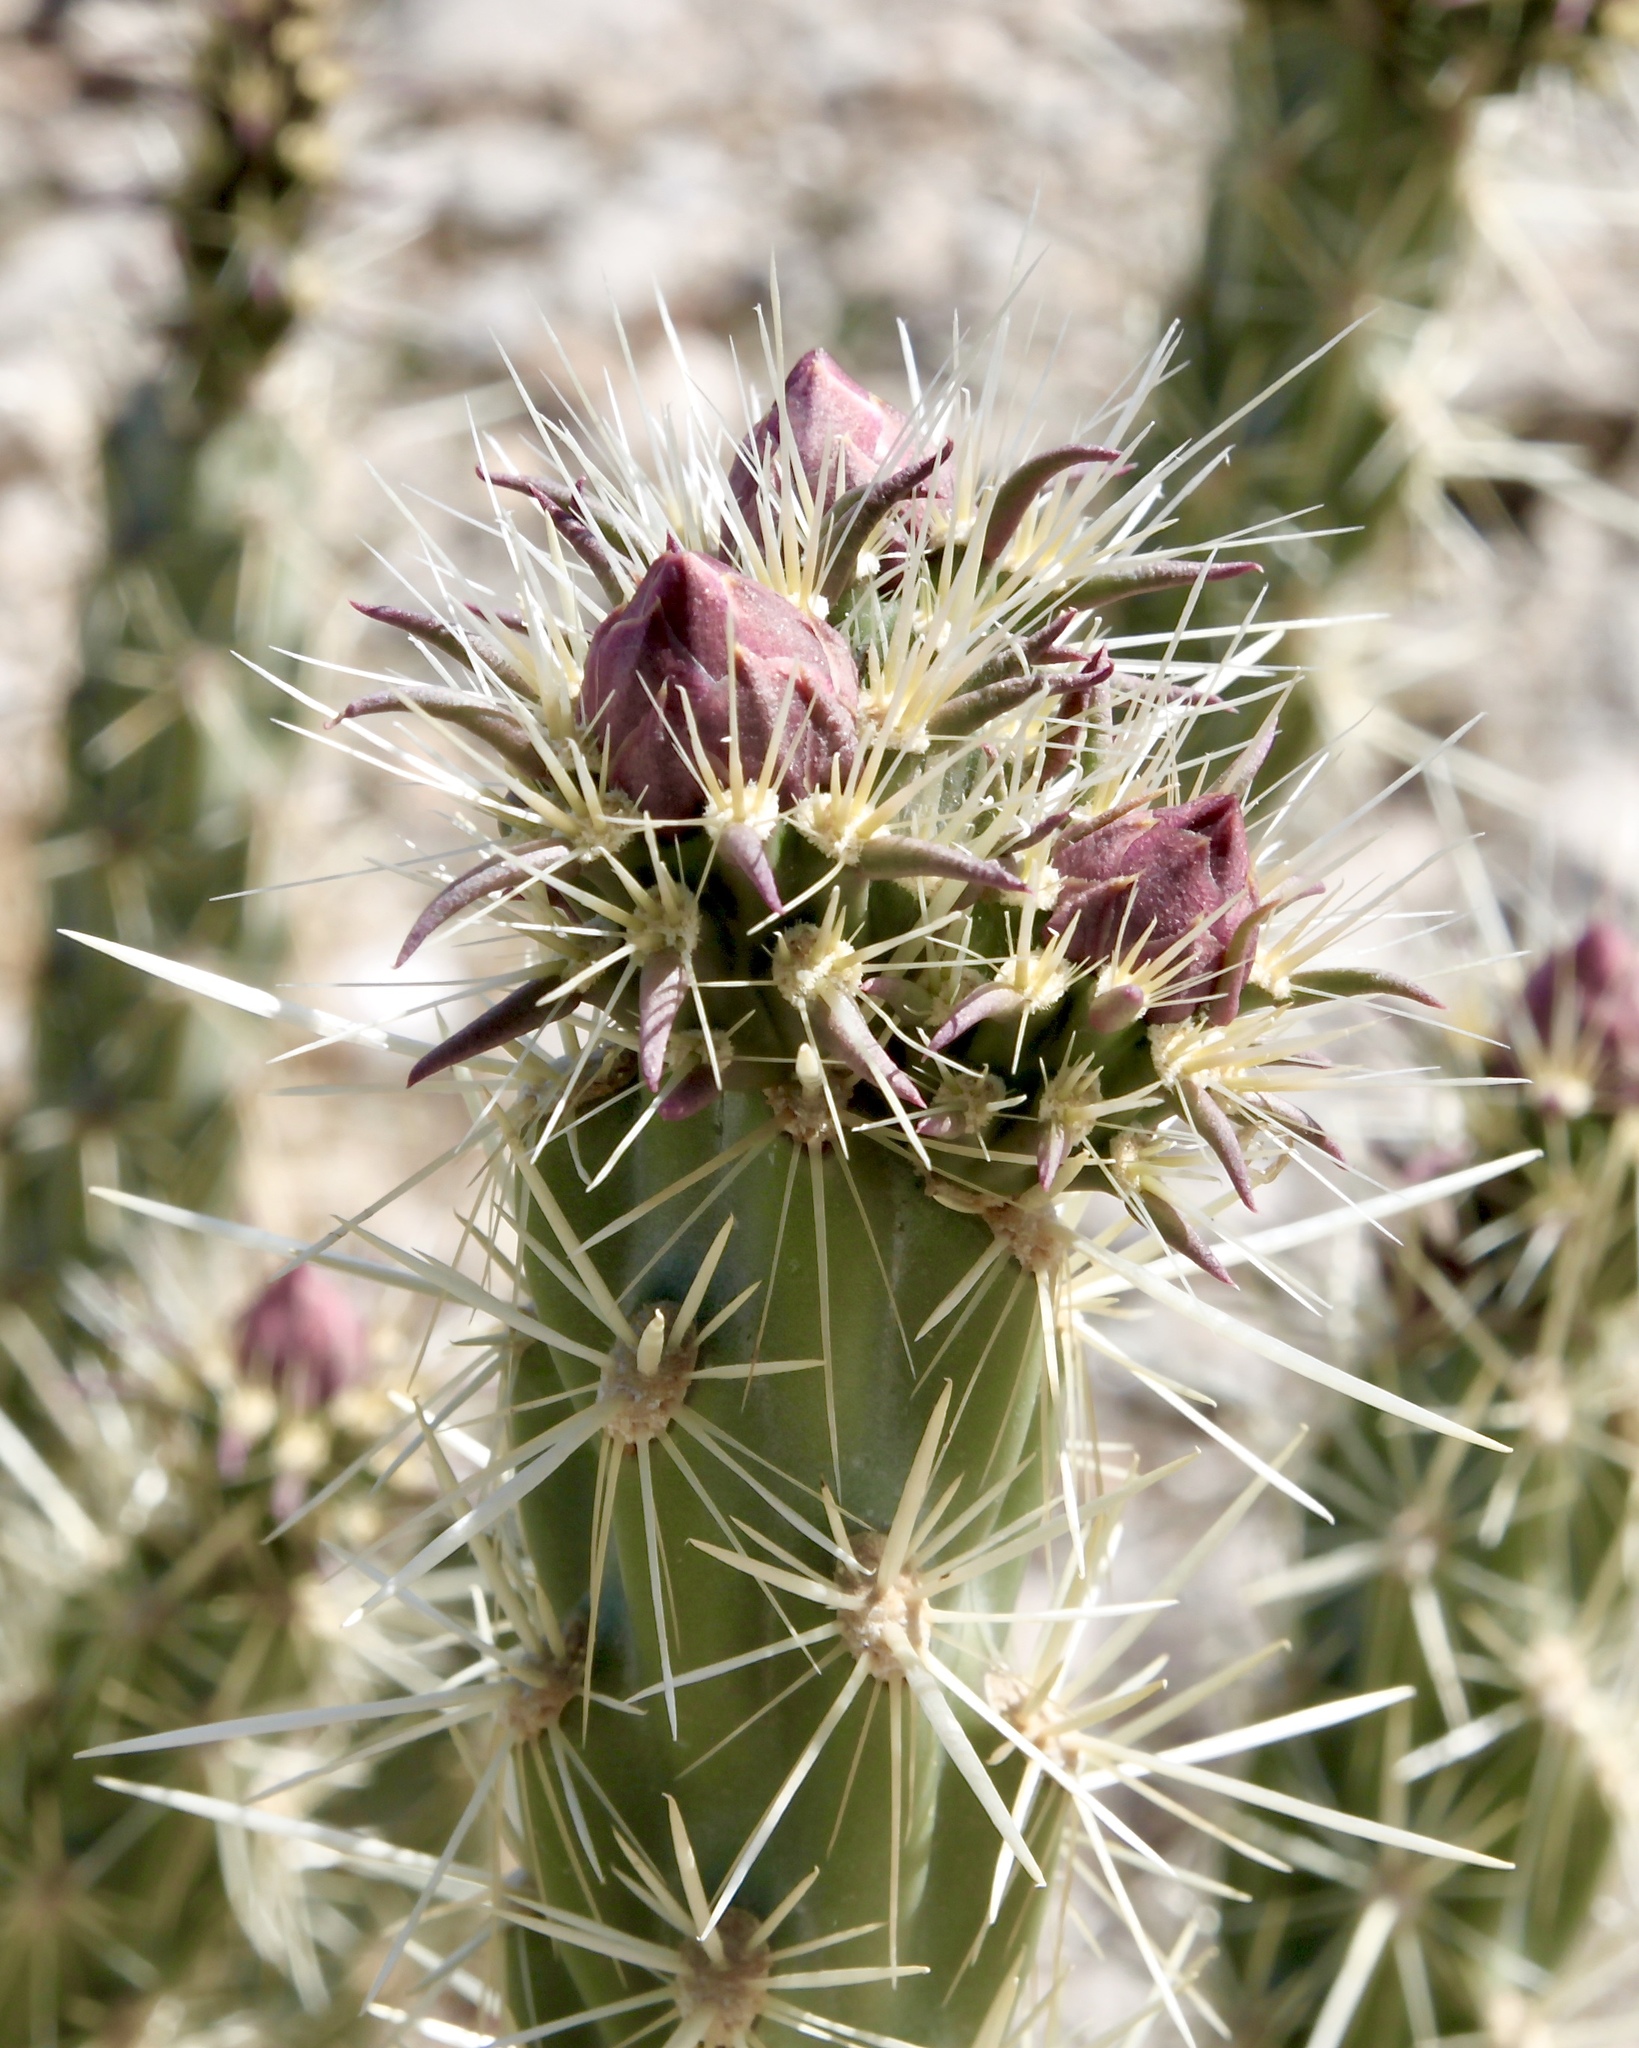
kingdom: Plantae
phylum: Tracheophyta
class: Magnoliopsida
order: Caryophyllales
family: Cactaceae
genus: Cylindropuntia
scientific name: Cylindropuntia acanthocarpa
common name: Buckhorn cholla
